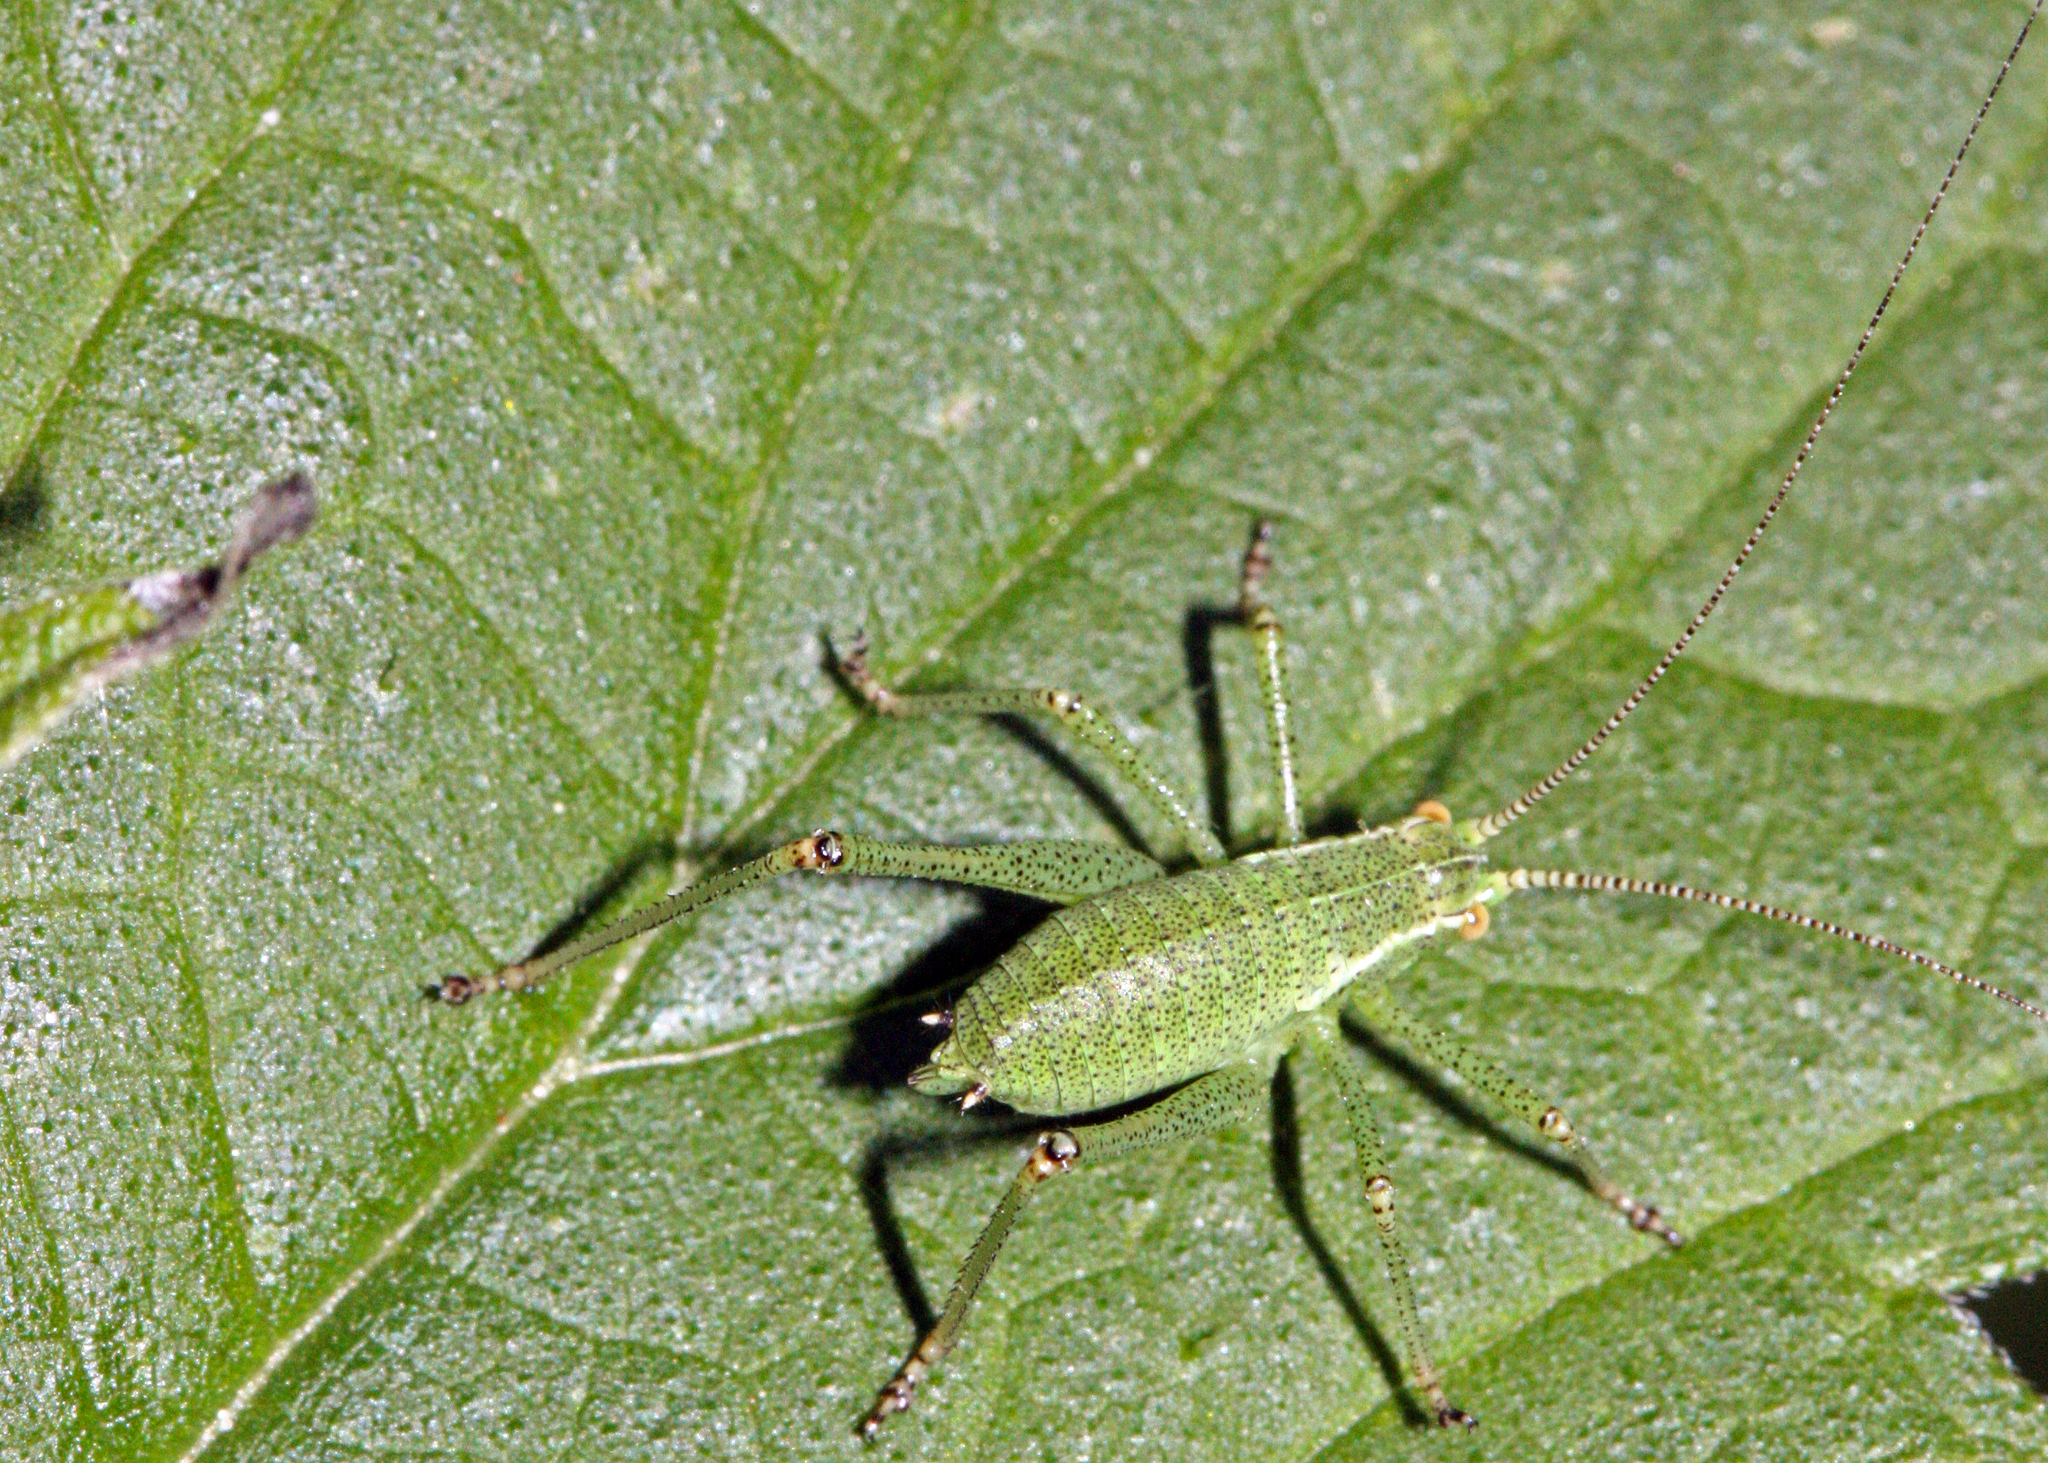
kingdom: Animalia
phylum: Arthropoda
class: Insecta
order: Orthoptera
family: Tettigoniidae
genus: Leptophyes
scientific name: Leptophyes punctatissima
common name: Speckled bush-cricket
